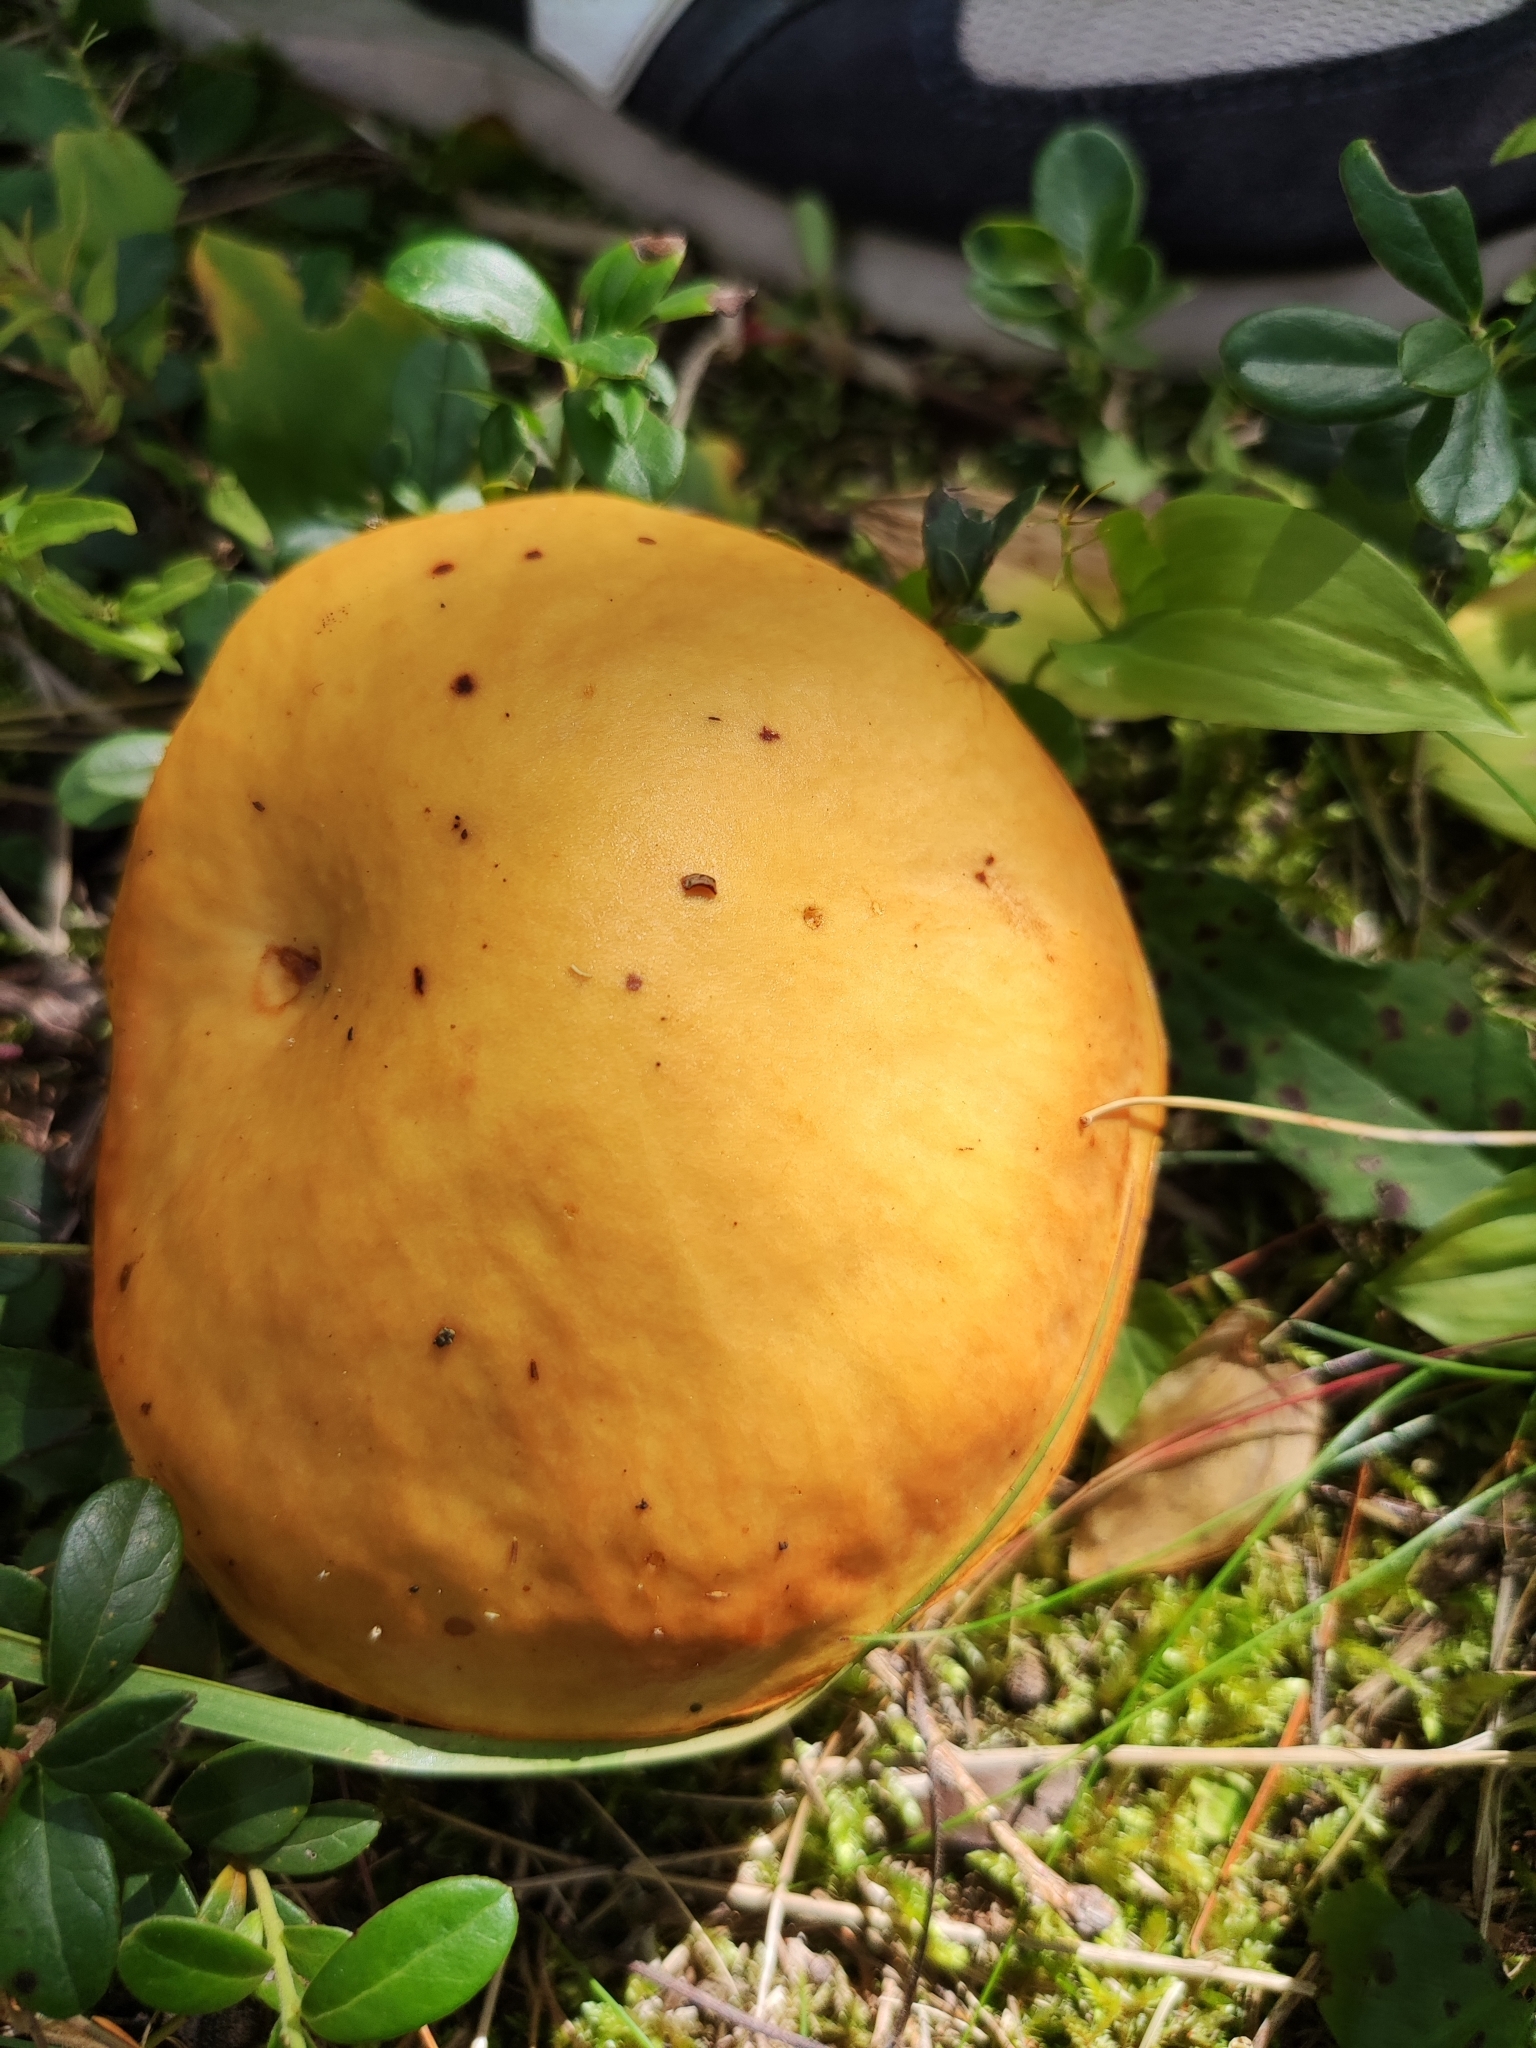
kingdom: Fungi
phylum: Basidiomycota
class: Agaricomycetes
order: Boletales
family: Suillaceae
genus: Suillus
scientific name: Suillus grevillei
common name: Larch bolete
